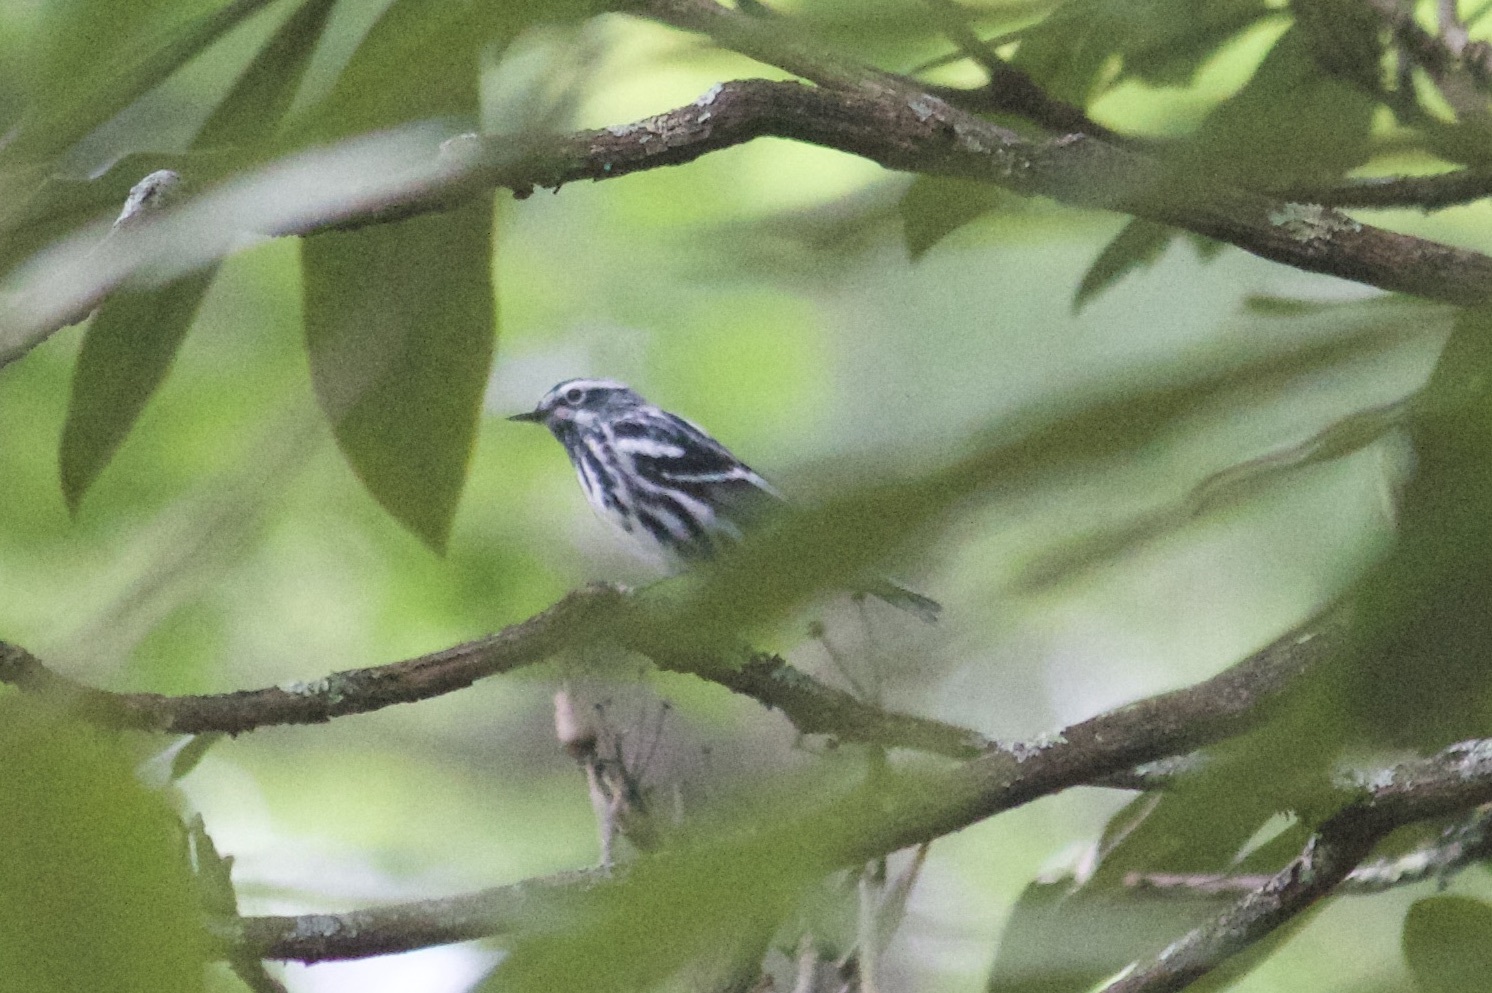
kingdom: Animalia
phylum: Chordata
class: Aves
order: Passeriformes
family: Parulidae
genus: Mniotilta
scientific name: Mniotilta varia
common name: Black-and-white warbler
